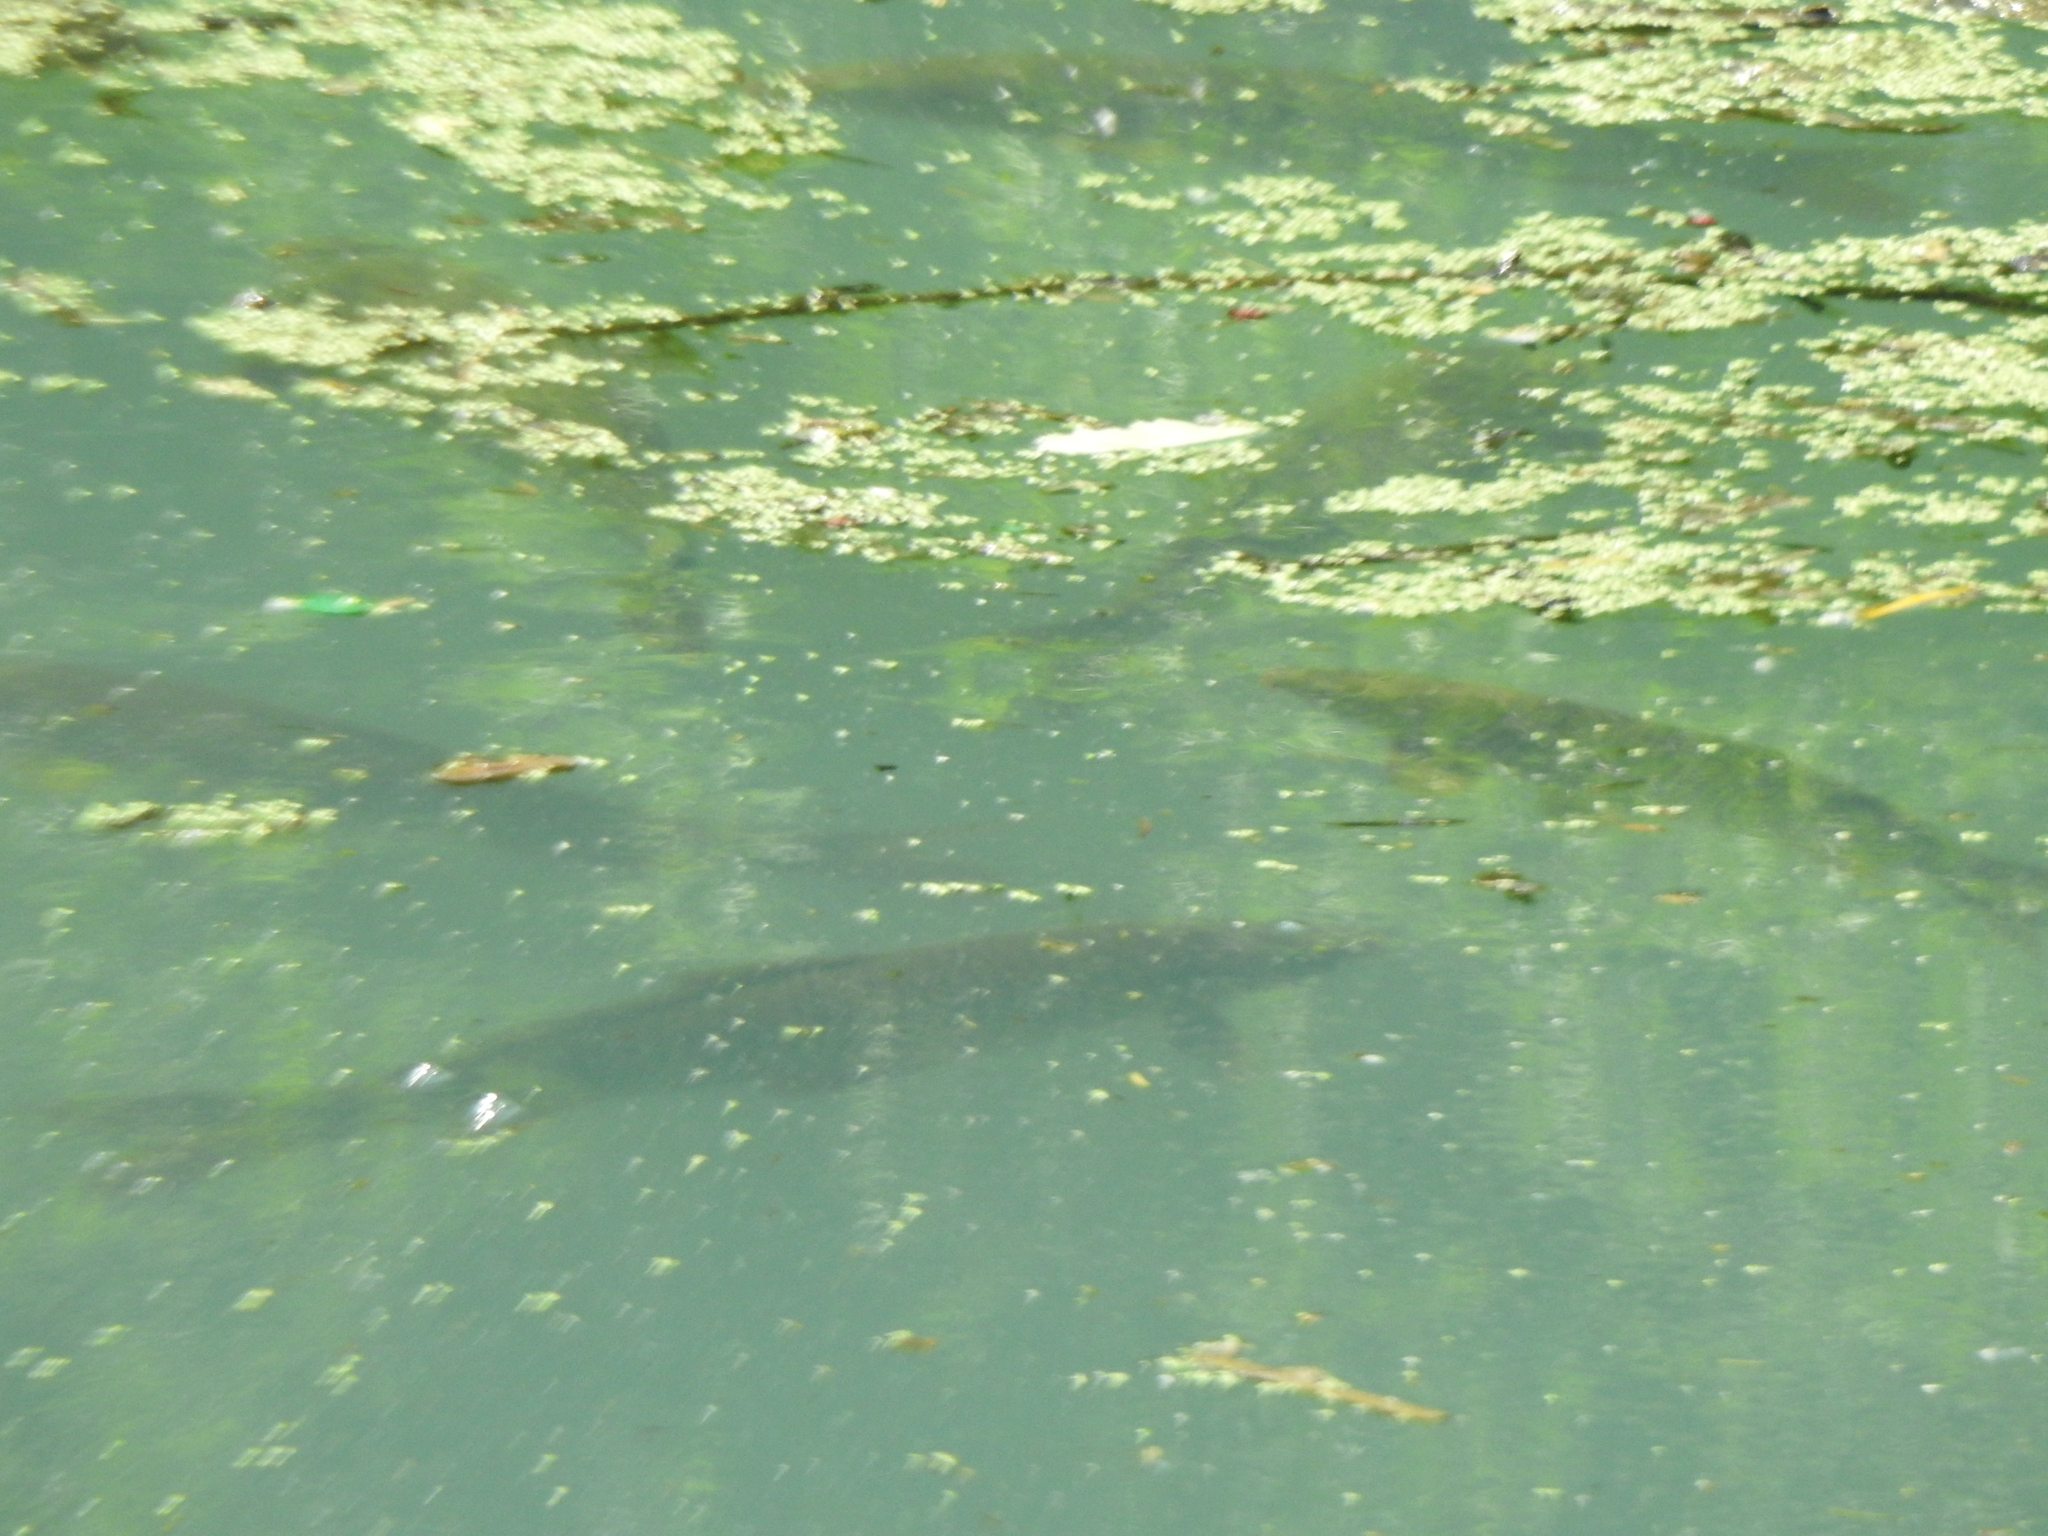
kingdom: Animalia
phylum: Chordata
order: Cypriniformes
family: Cyprinidae
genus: Cyprinus
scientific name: Cyprinus carpio
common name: Common carp
